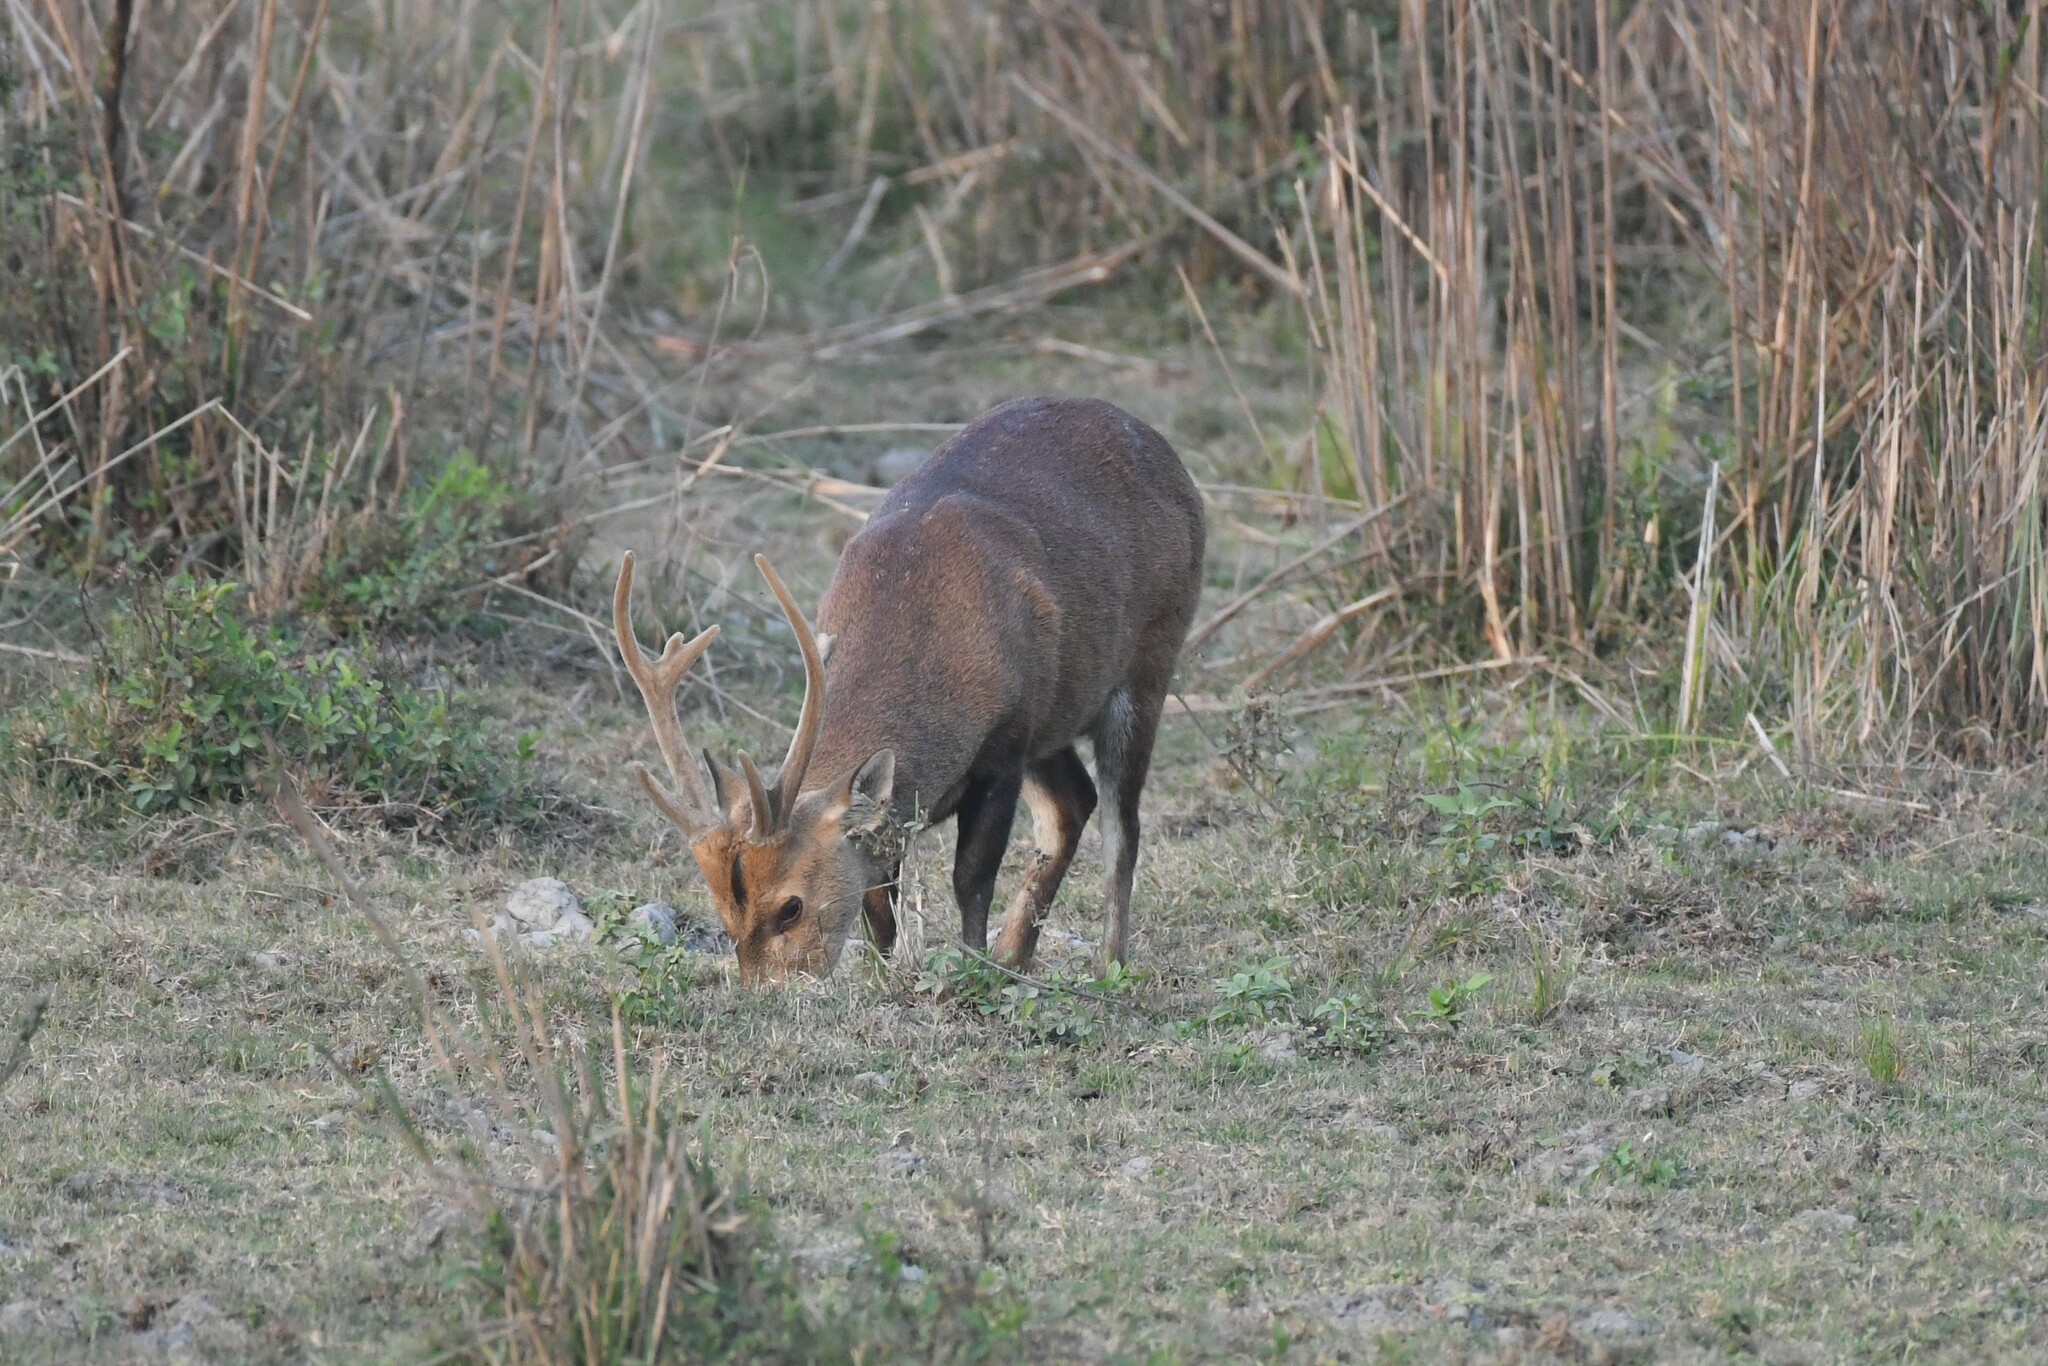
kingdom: Animalia
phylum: Chordata
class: Mammalia
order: Artiodactyla
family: Cervidae
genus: Axis
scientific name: Axis porcinus
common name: Hog deer
